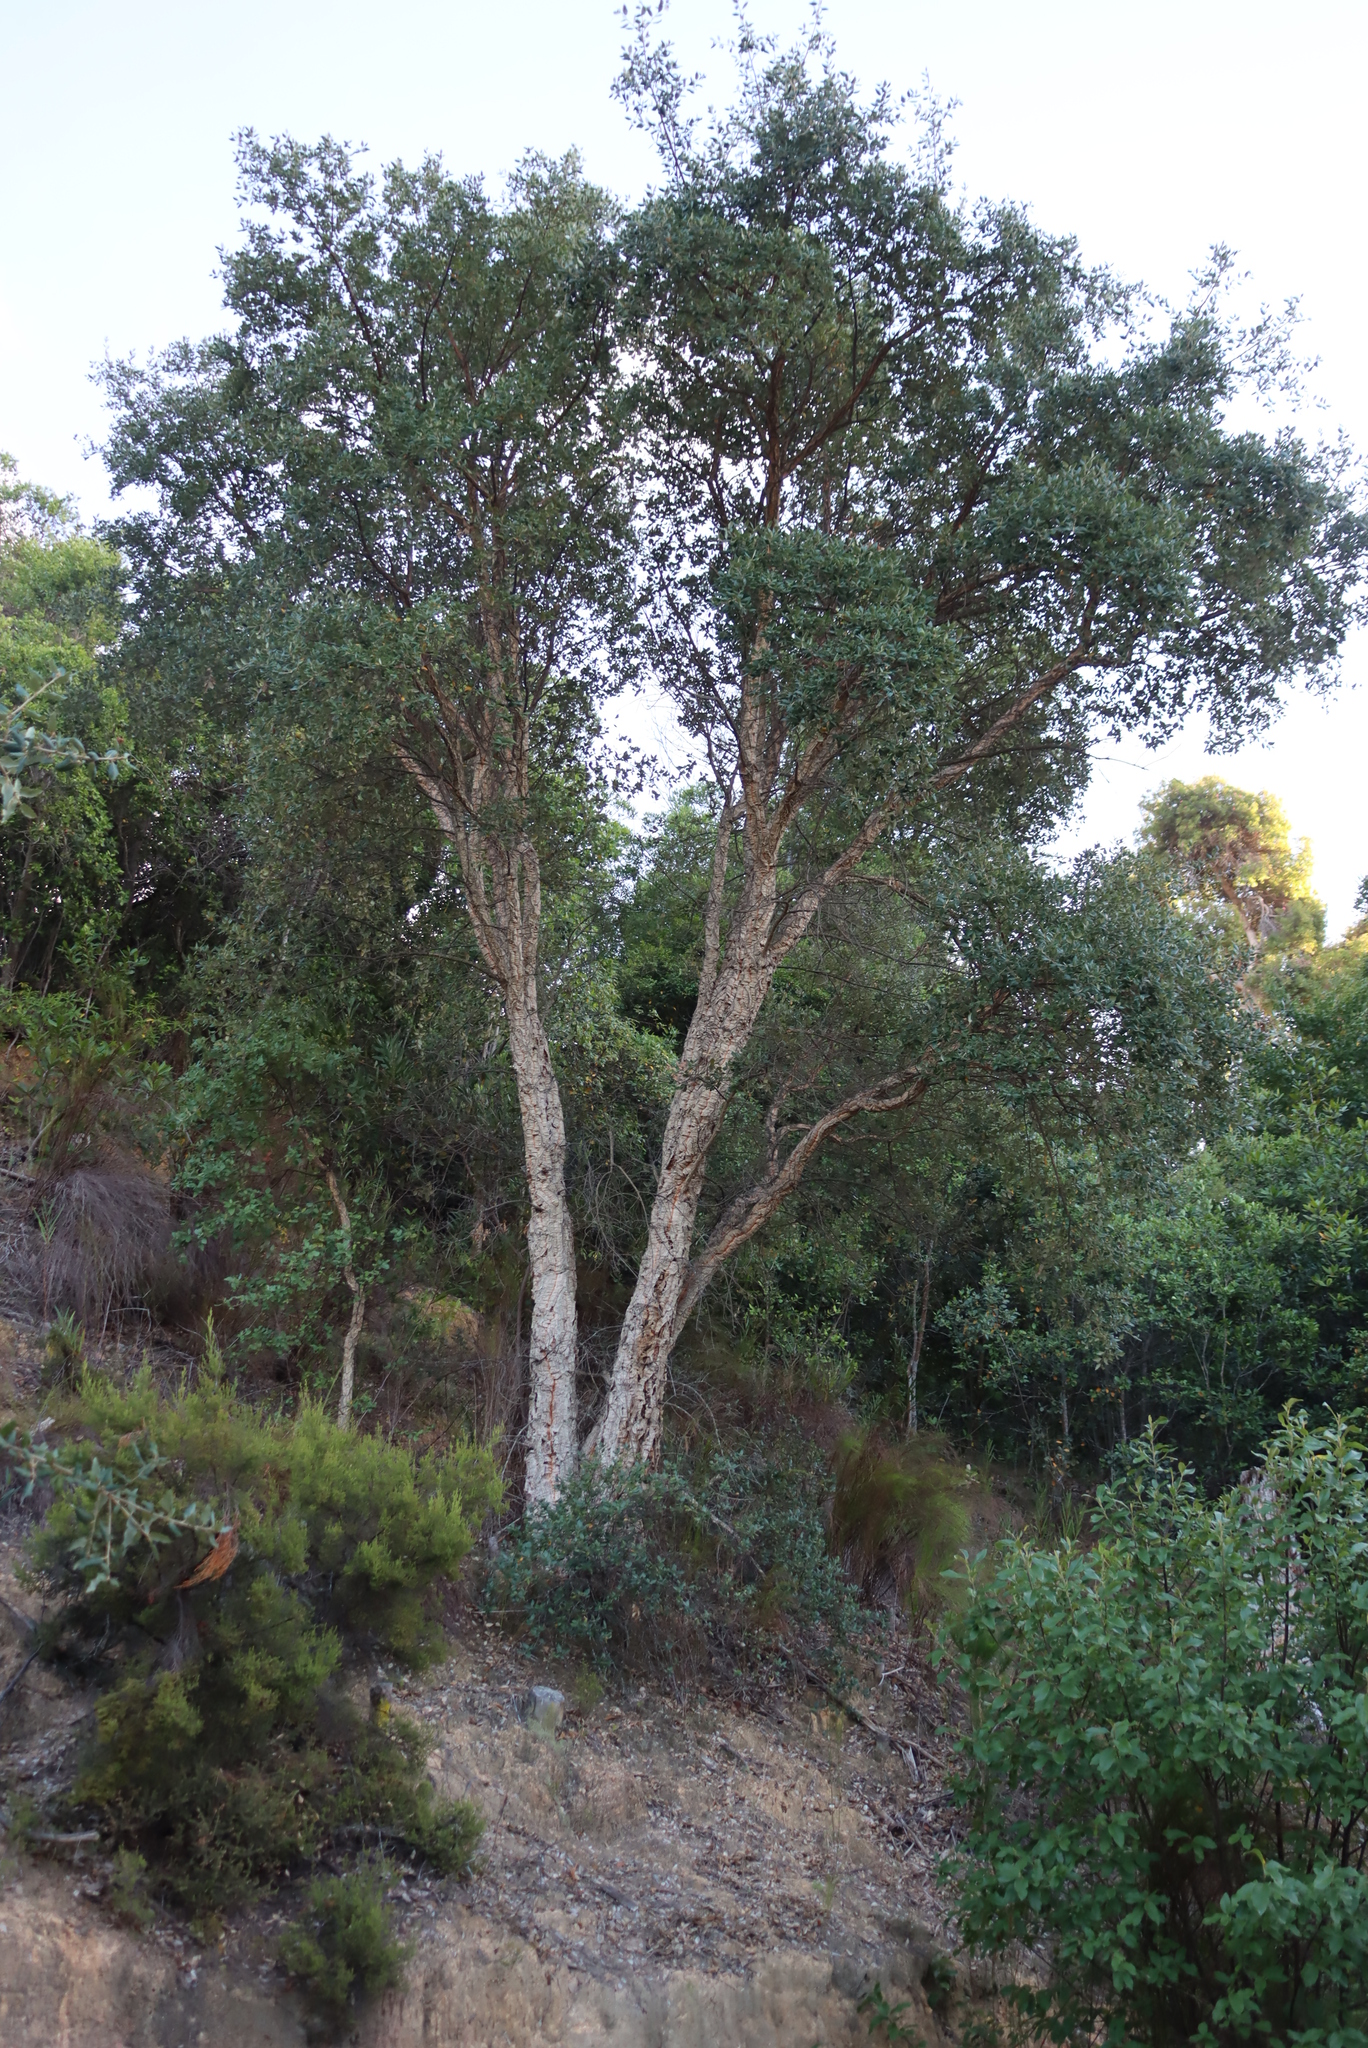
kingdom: Plantae
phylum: Tracheophyta
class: Magnoliopsida
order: Fagales
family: Fagaceae
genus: Quercus
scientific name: Quercus suber
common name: Cork oak
